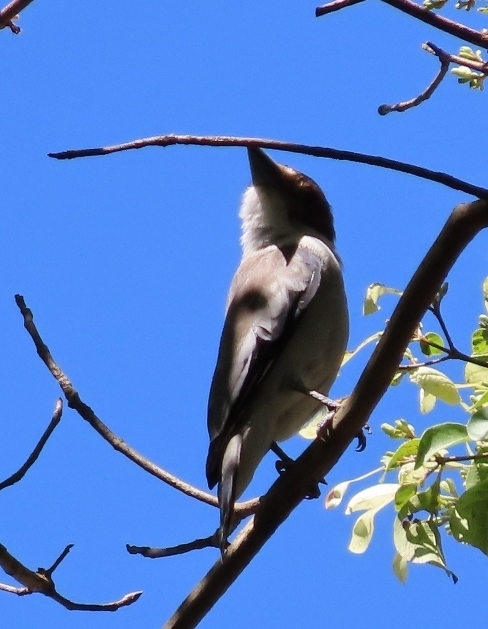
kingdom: Animalia
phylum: Chordata
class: Aves
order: Passeriformes
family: Cotingidae
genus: Tityra
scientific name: Tityra inquisitor
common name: Black-crowned tityra
